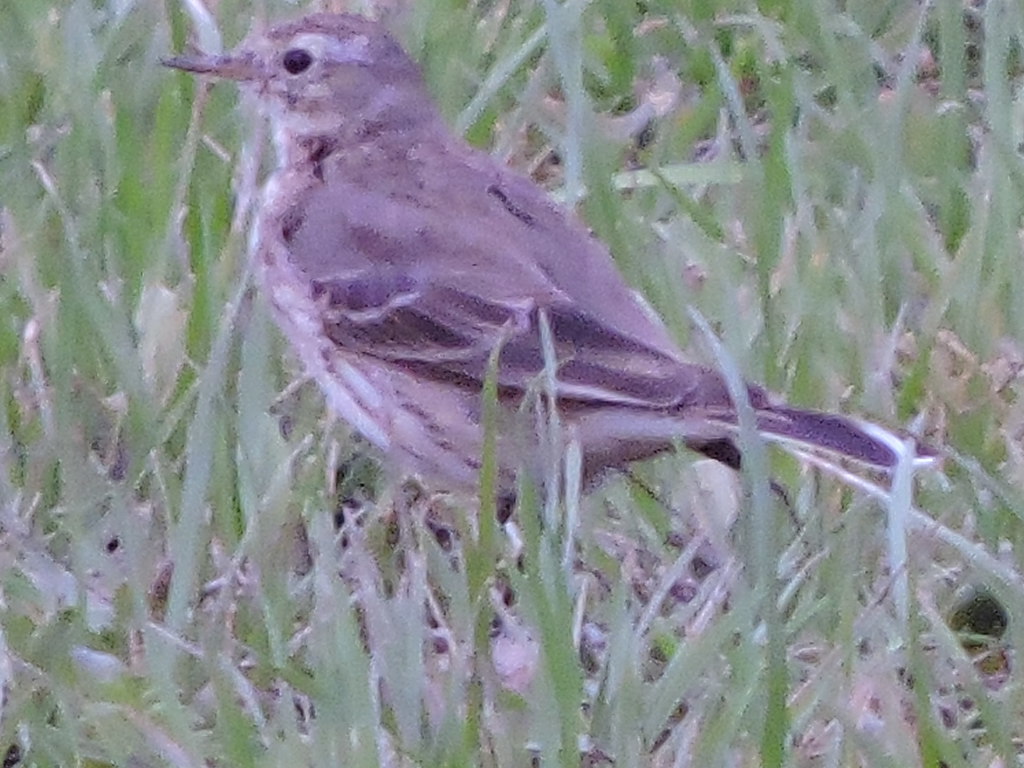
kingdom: Animalia
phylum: Chordata
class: Aves
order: Passeriformes
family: Motacillidae
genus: Anthus
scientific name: Anthus rubescens
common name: Buff-bellied pipit
